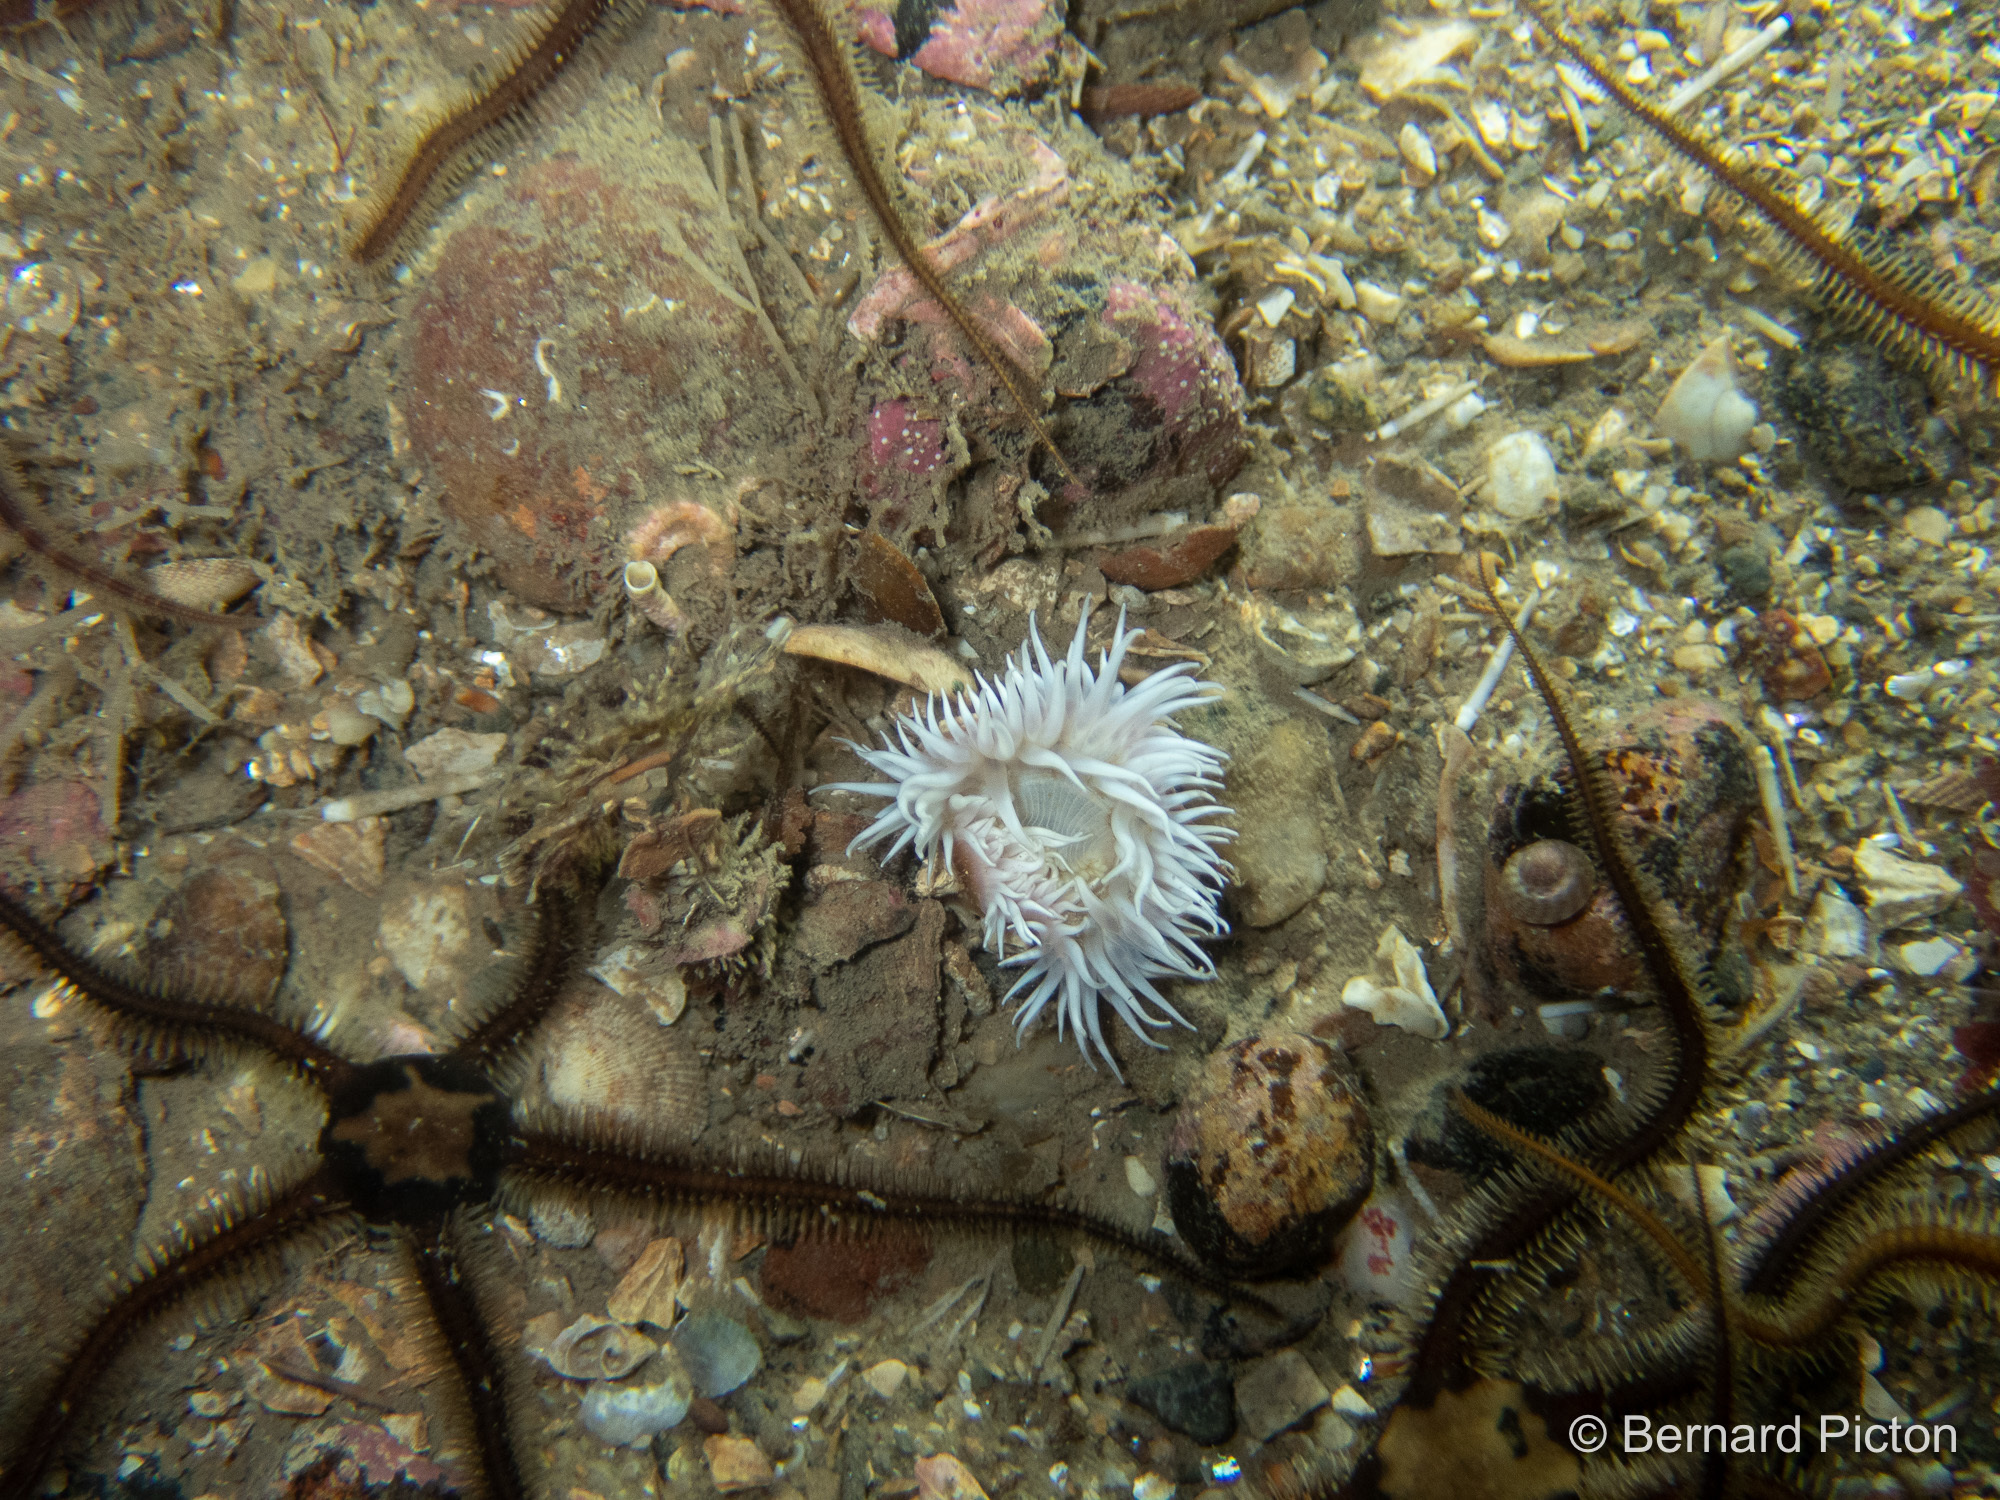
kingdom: Animalia
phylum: Cnidaria
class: Anthozoa
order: Actiniaria
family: Sagartiidae
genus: Cylista
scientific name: Cylista elegans
